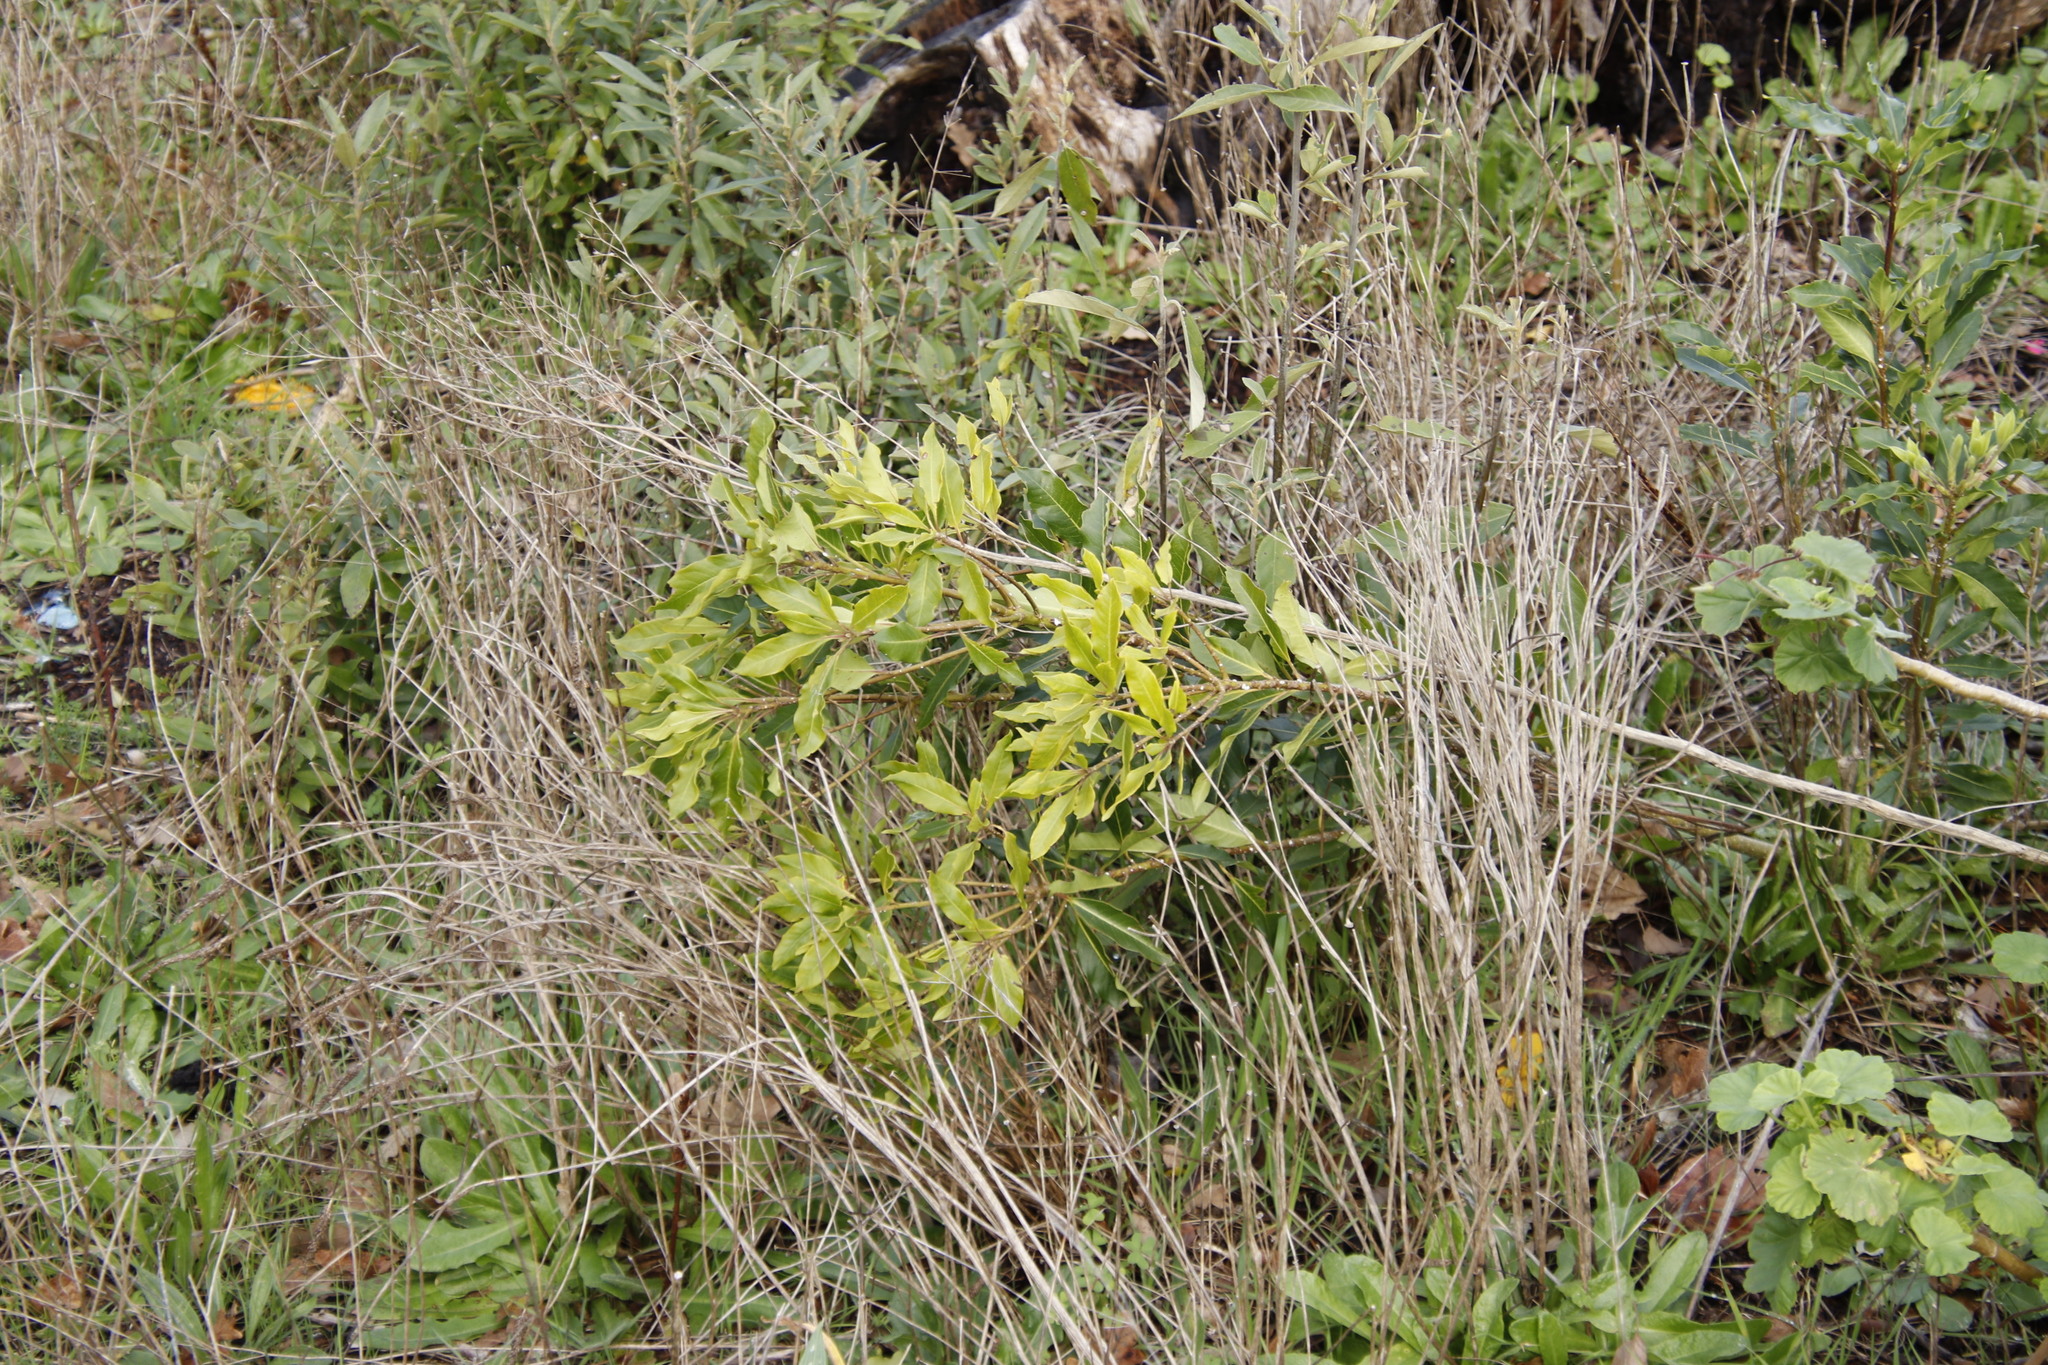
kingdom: Plantae
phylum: Tracheophyta
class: Magnoliopsida
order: Apiales
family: Pittosporaceae
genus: Pittosporum
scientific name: Pittosporum undulatum
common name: Australian cheesewood
